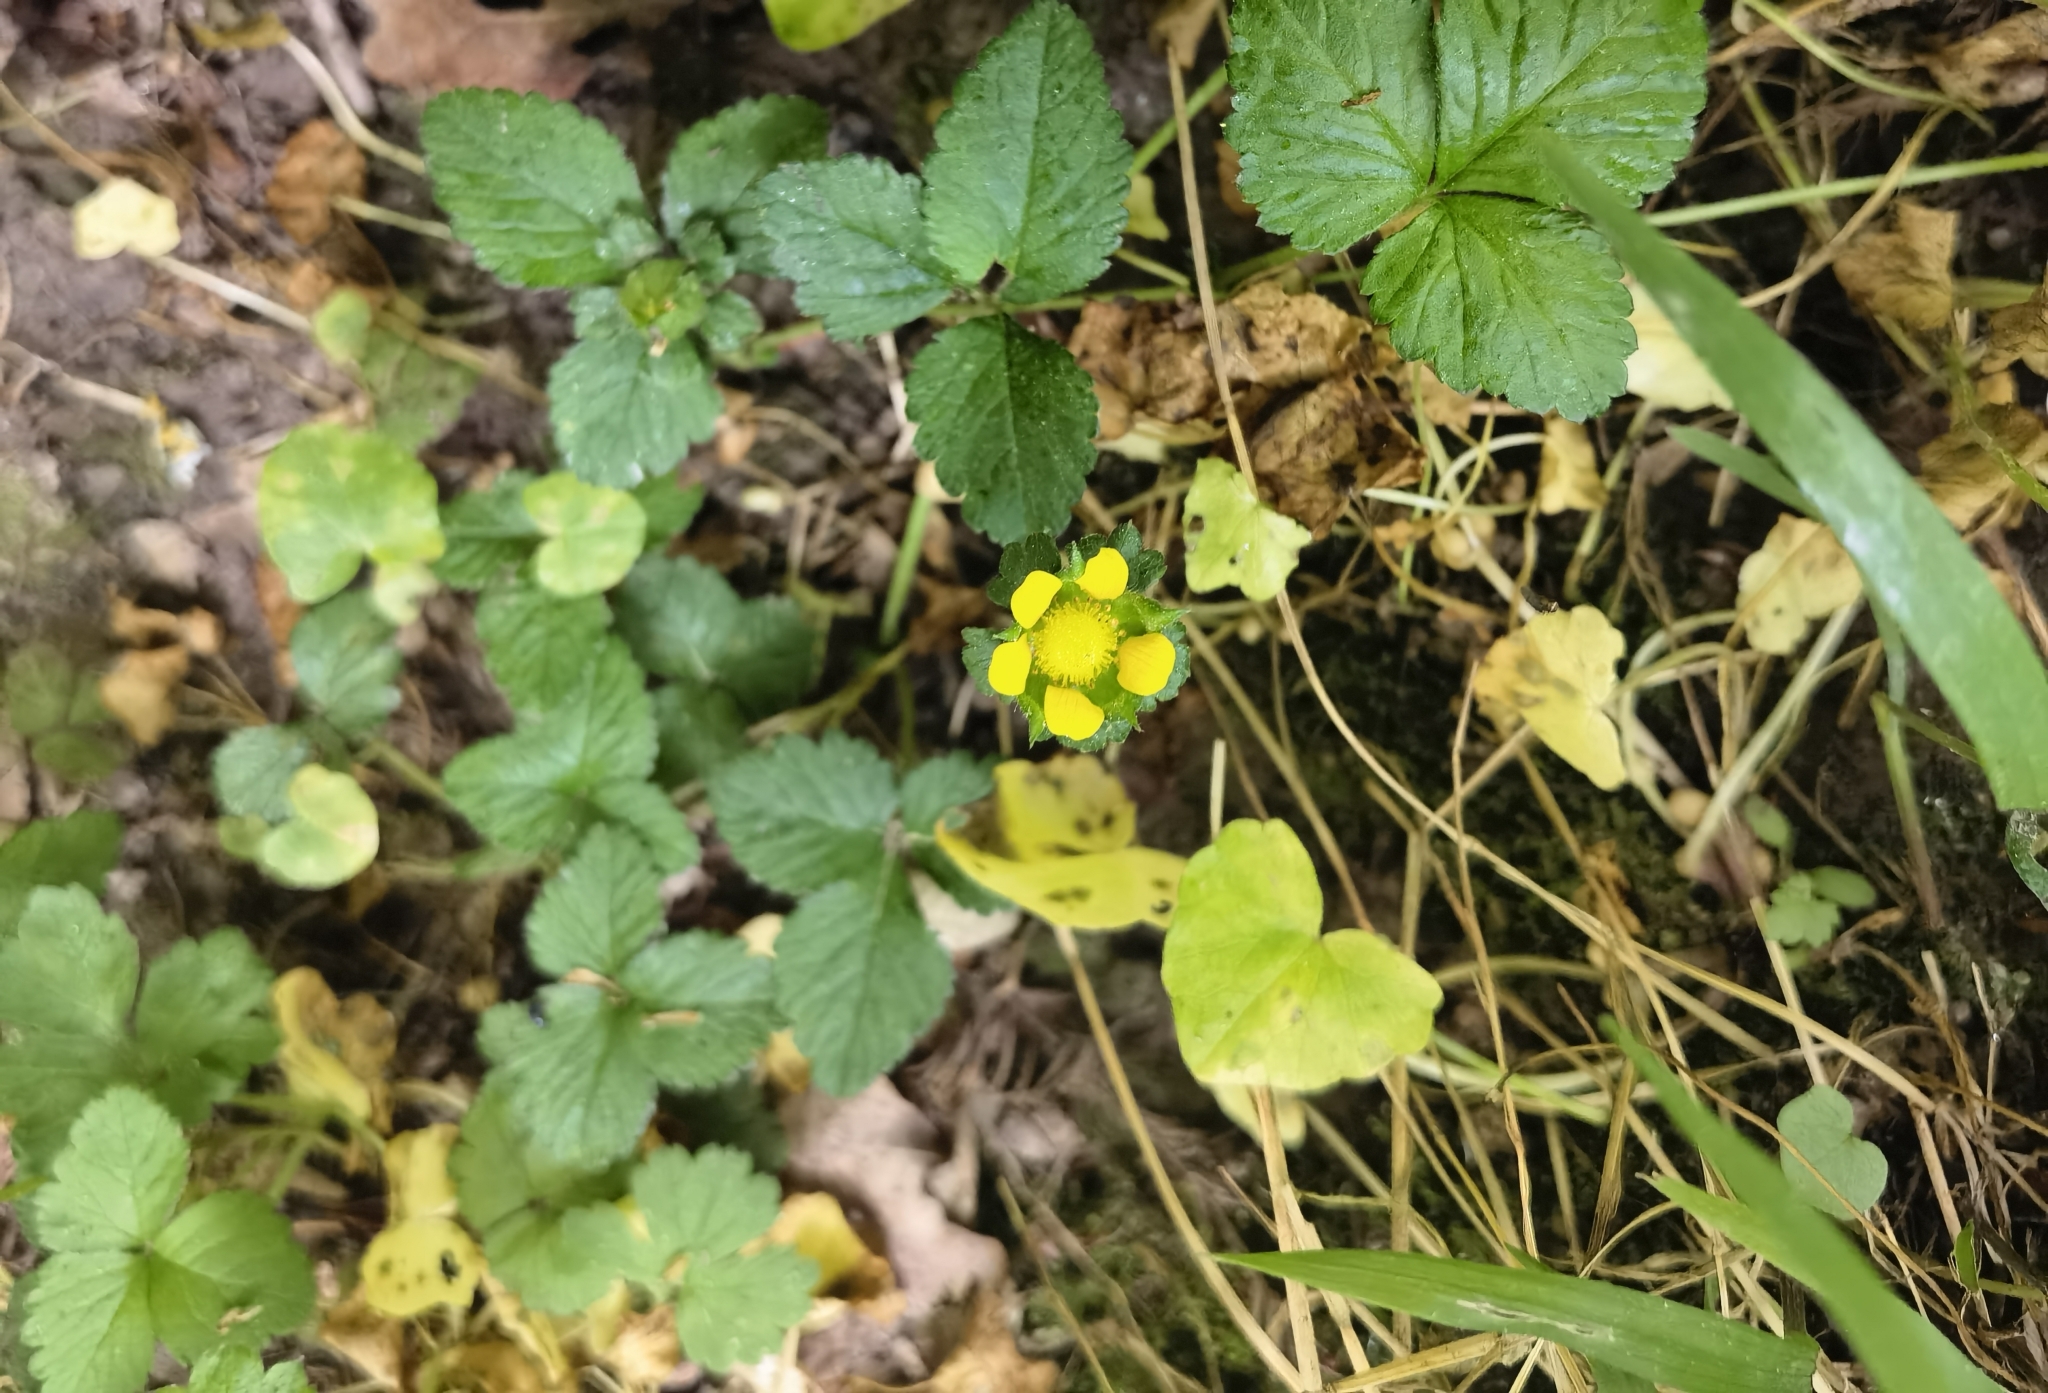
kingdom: Plantae
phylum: Tracheophyta
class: Magnoliopsida
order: Rosales
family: Rosaceae
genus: Potentilla
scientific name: Potentilla indica
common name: Yellow-flowered strawberry
